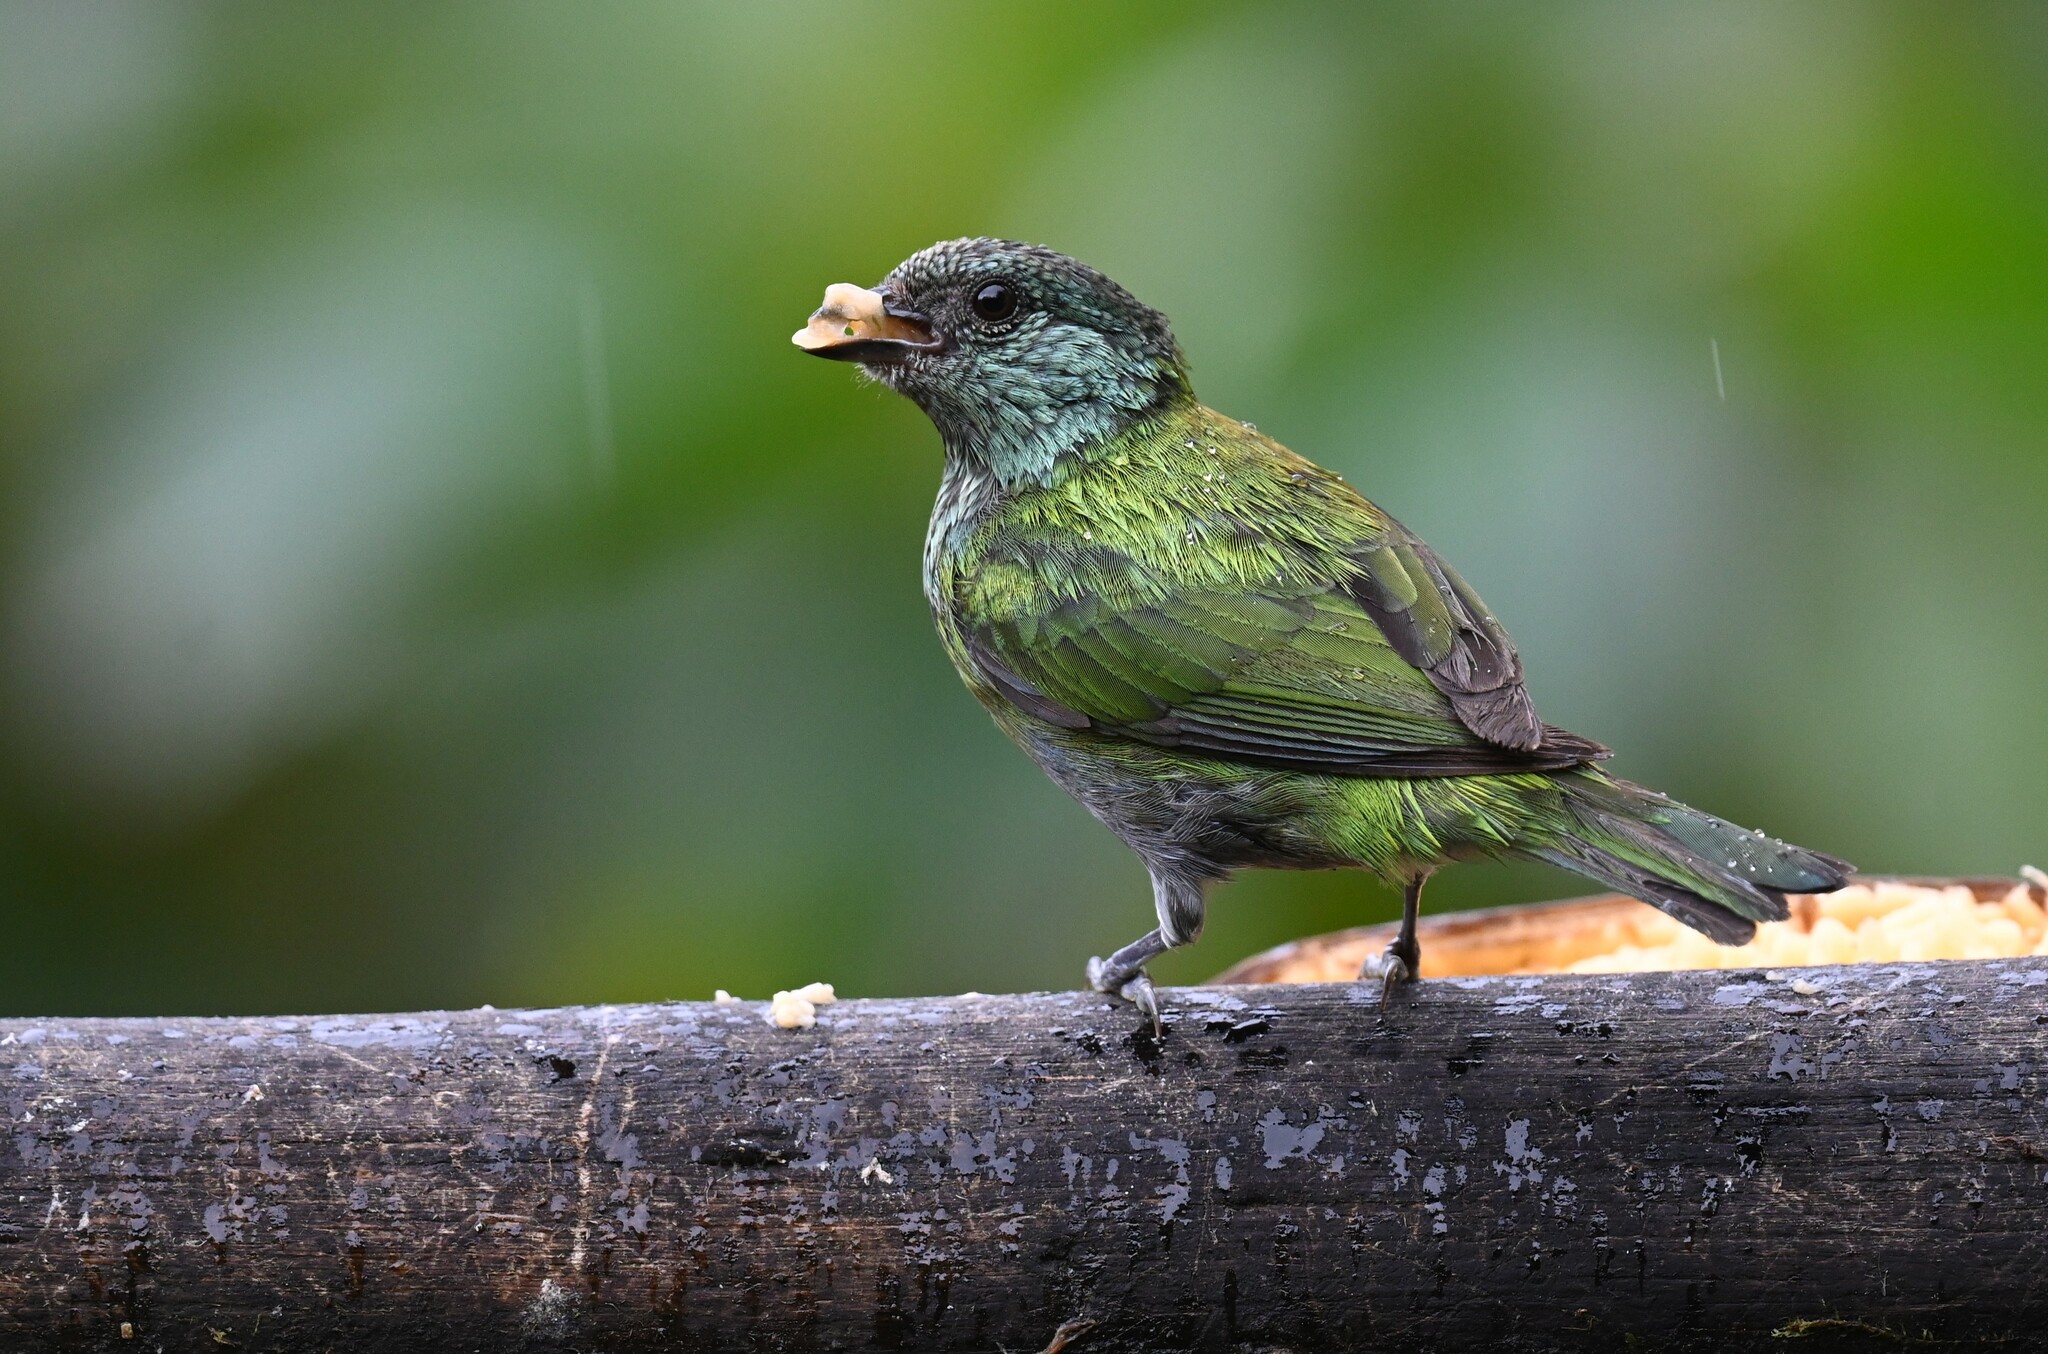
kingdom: Animalia
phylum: Chordata
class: Aves
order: Passeriformes
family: Thraupidae
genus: Stilpnia
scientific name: Stilpnia heinei
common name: Black-capped tanager
